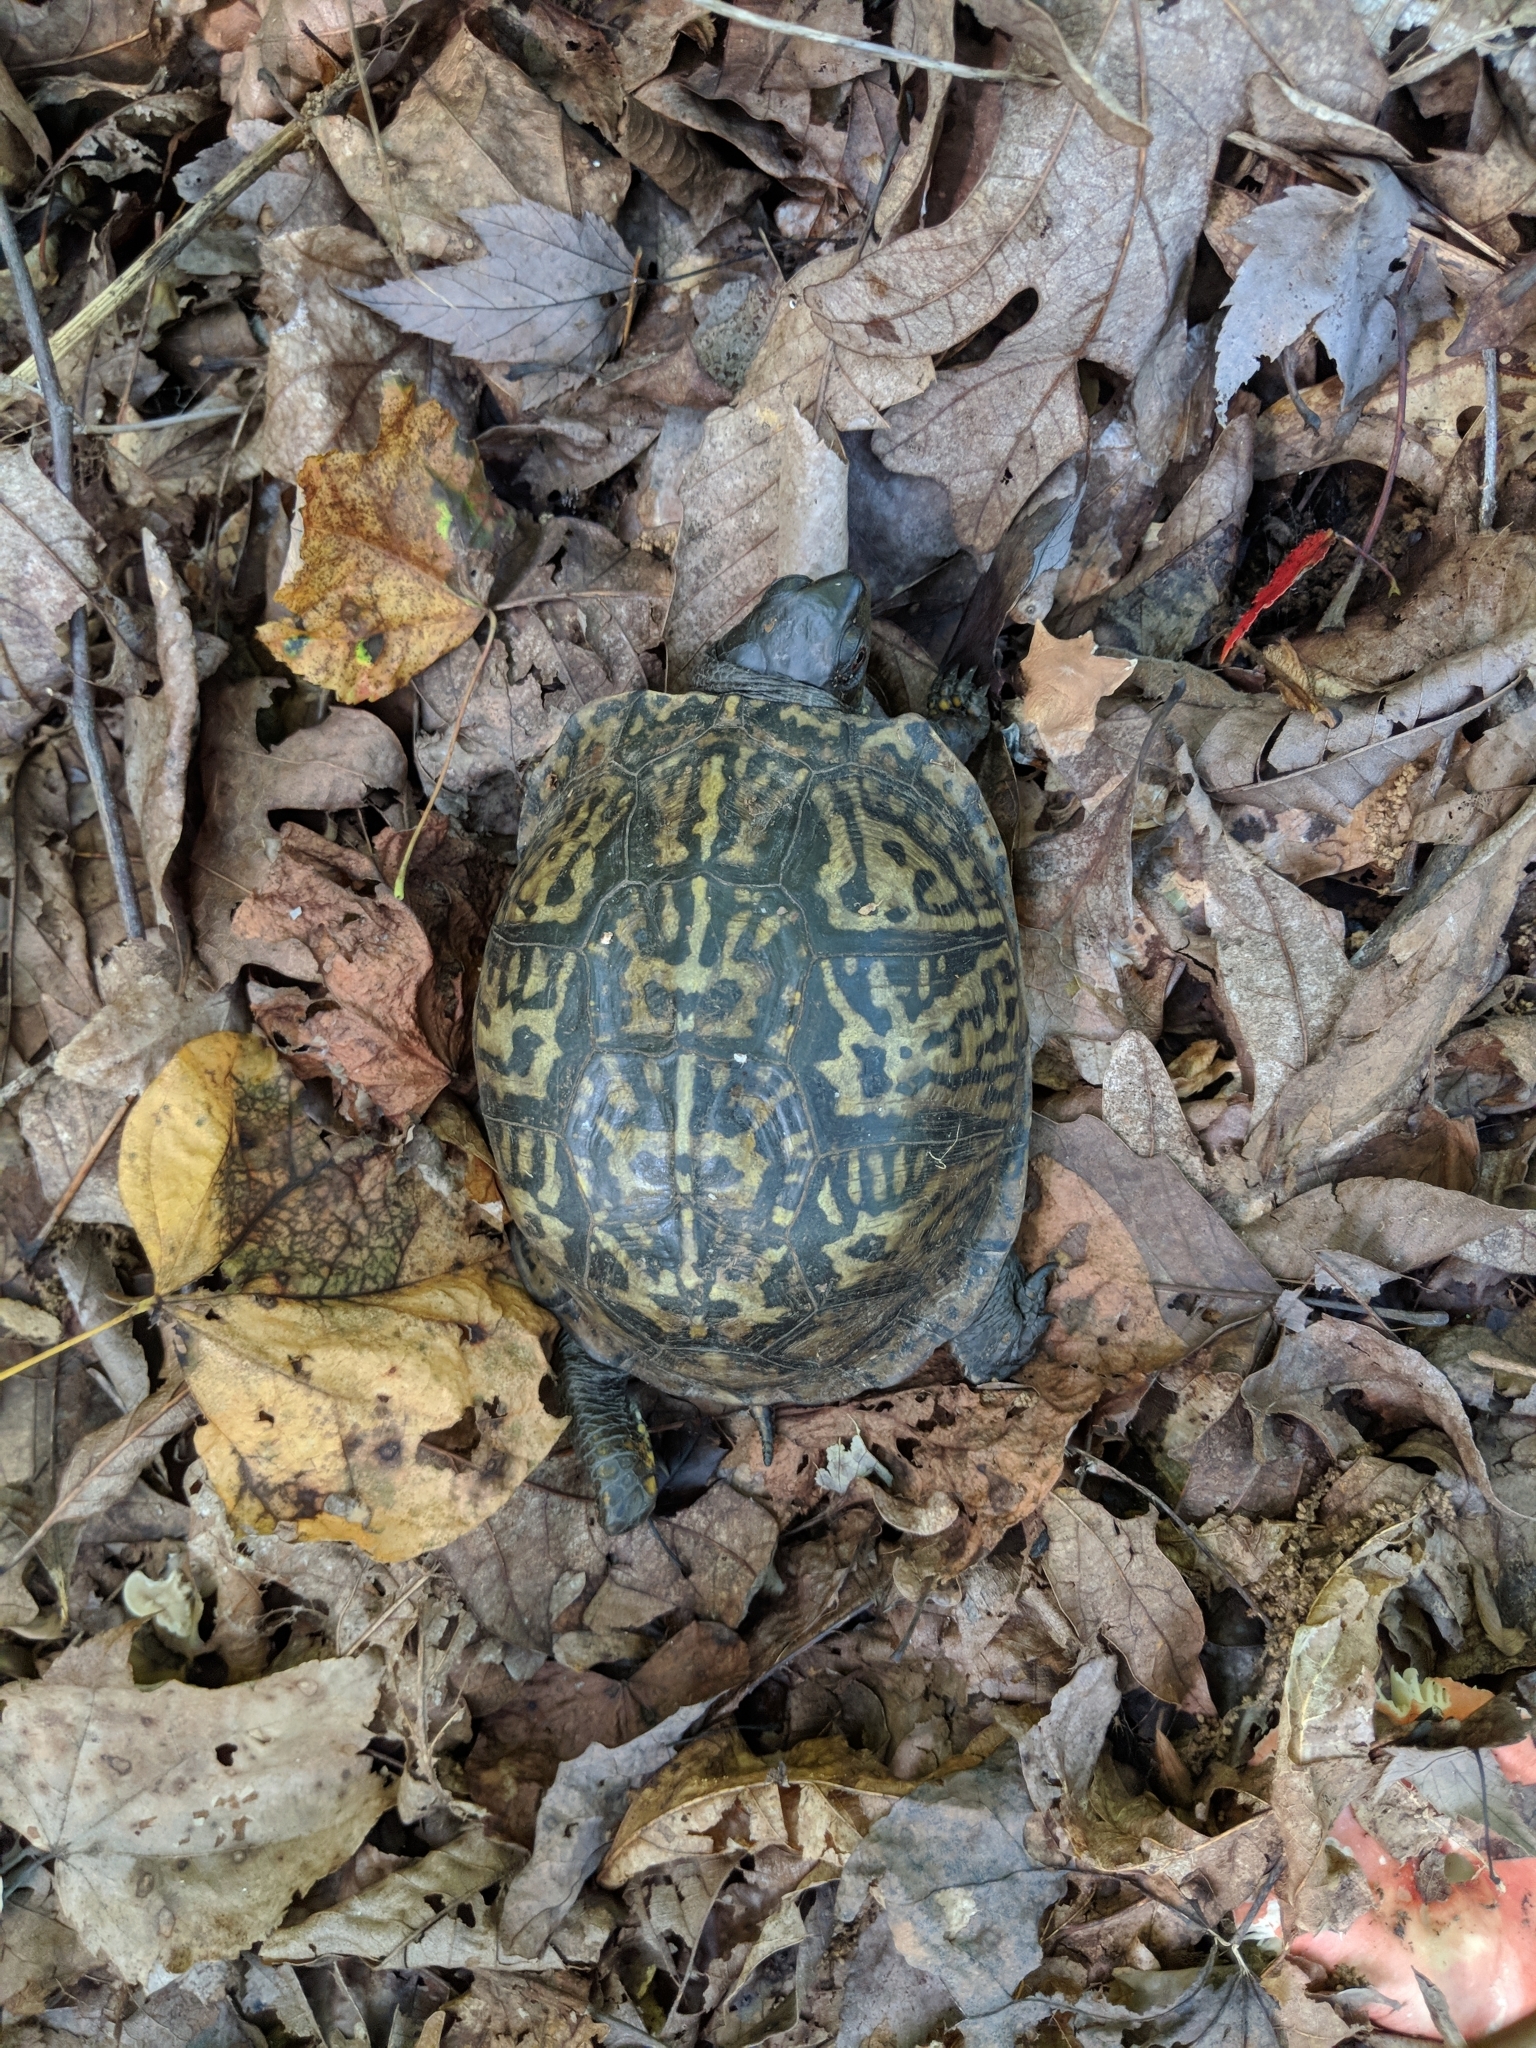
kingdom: Animalia
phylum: Chordata
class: Testudines
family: Emydidae
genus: Terrapene
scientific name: Terrapene carolina
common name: Common box turtle
